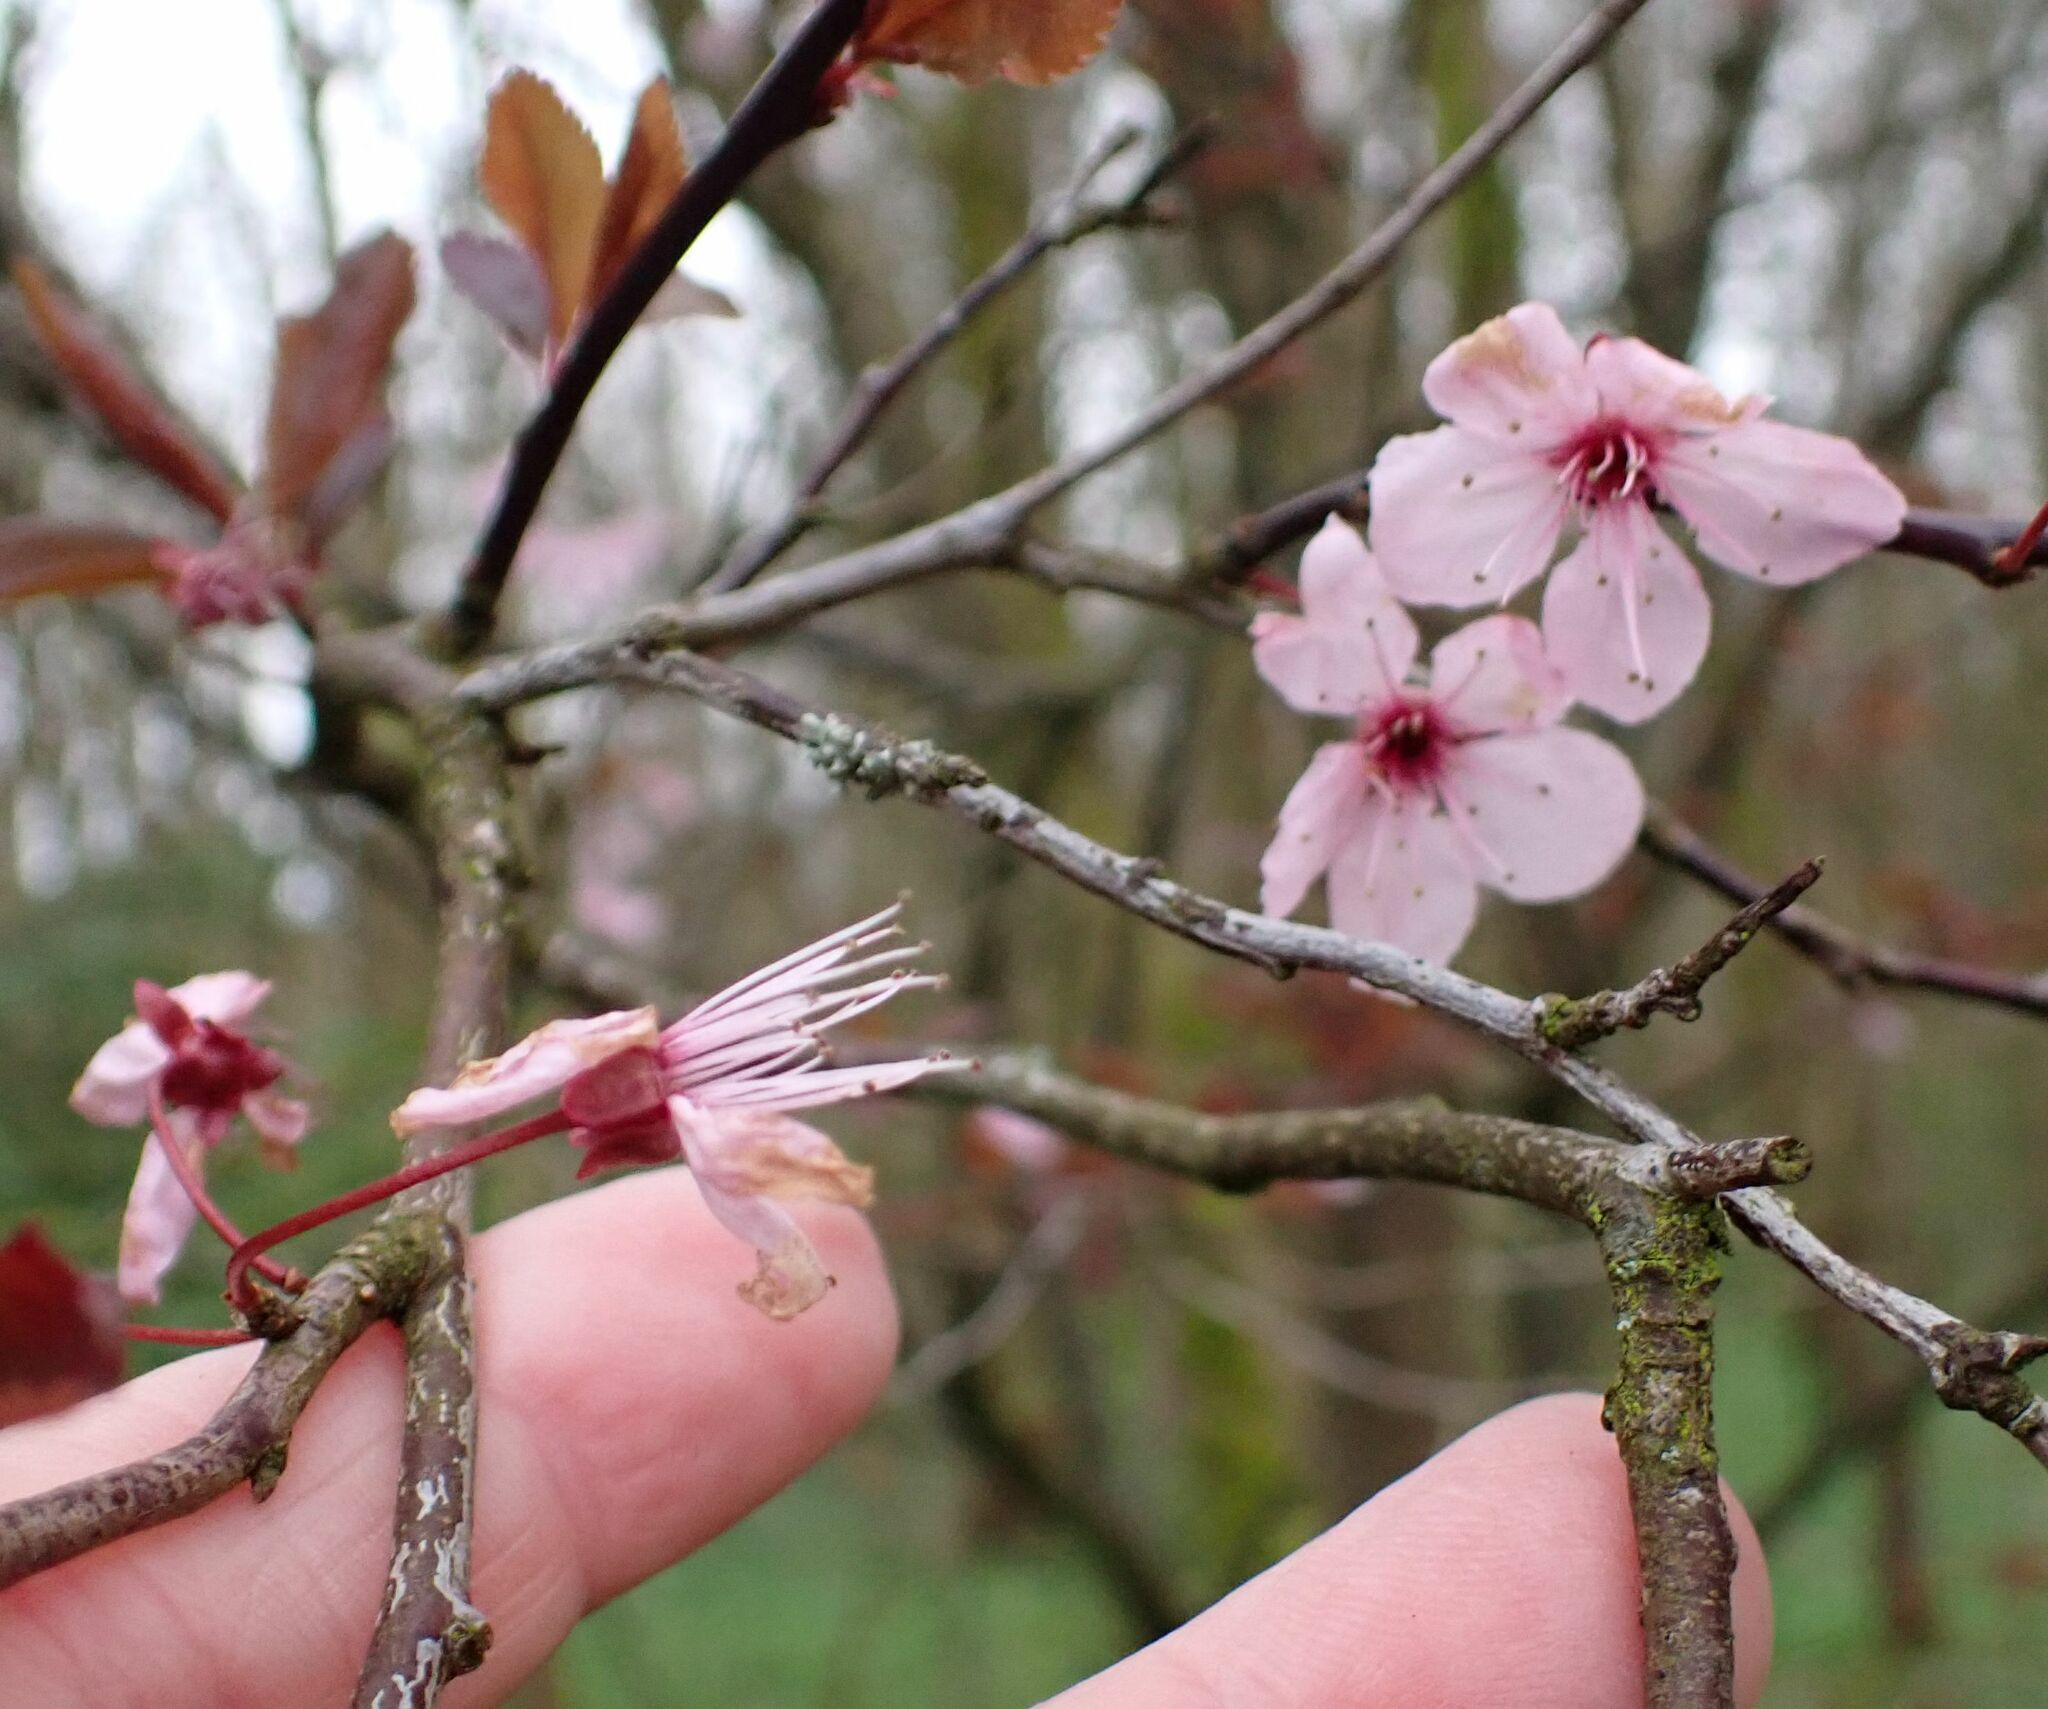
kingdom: Plantae
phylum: Tracheophyta
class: Magnoliopsida
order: Rosales
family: Rosaceae
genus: Prunus
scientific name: Prunus cerasifera
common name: Cherry plum
